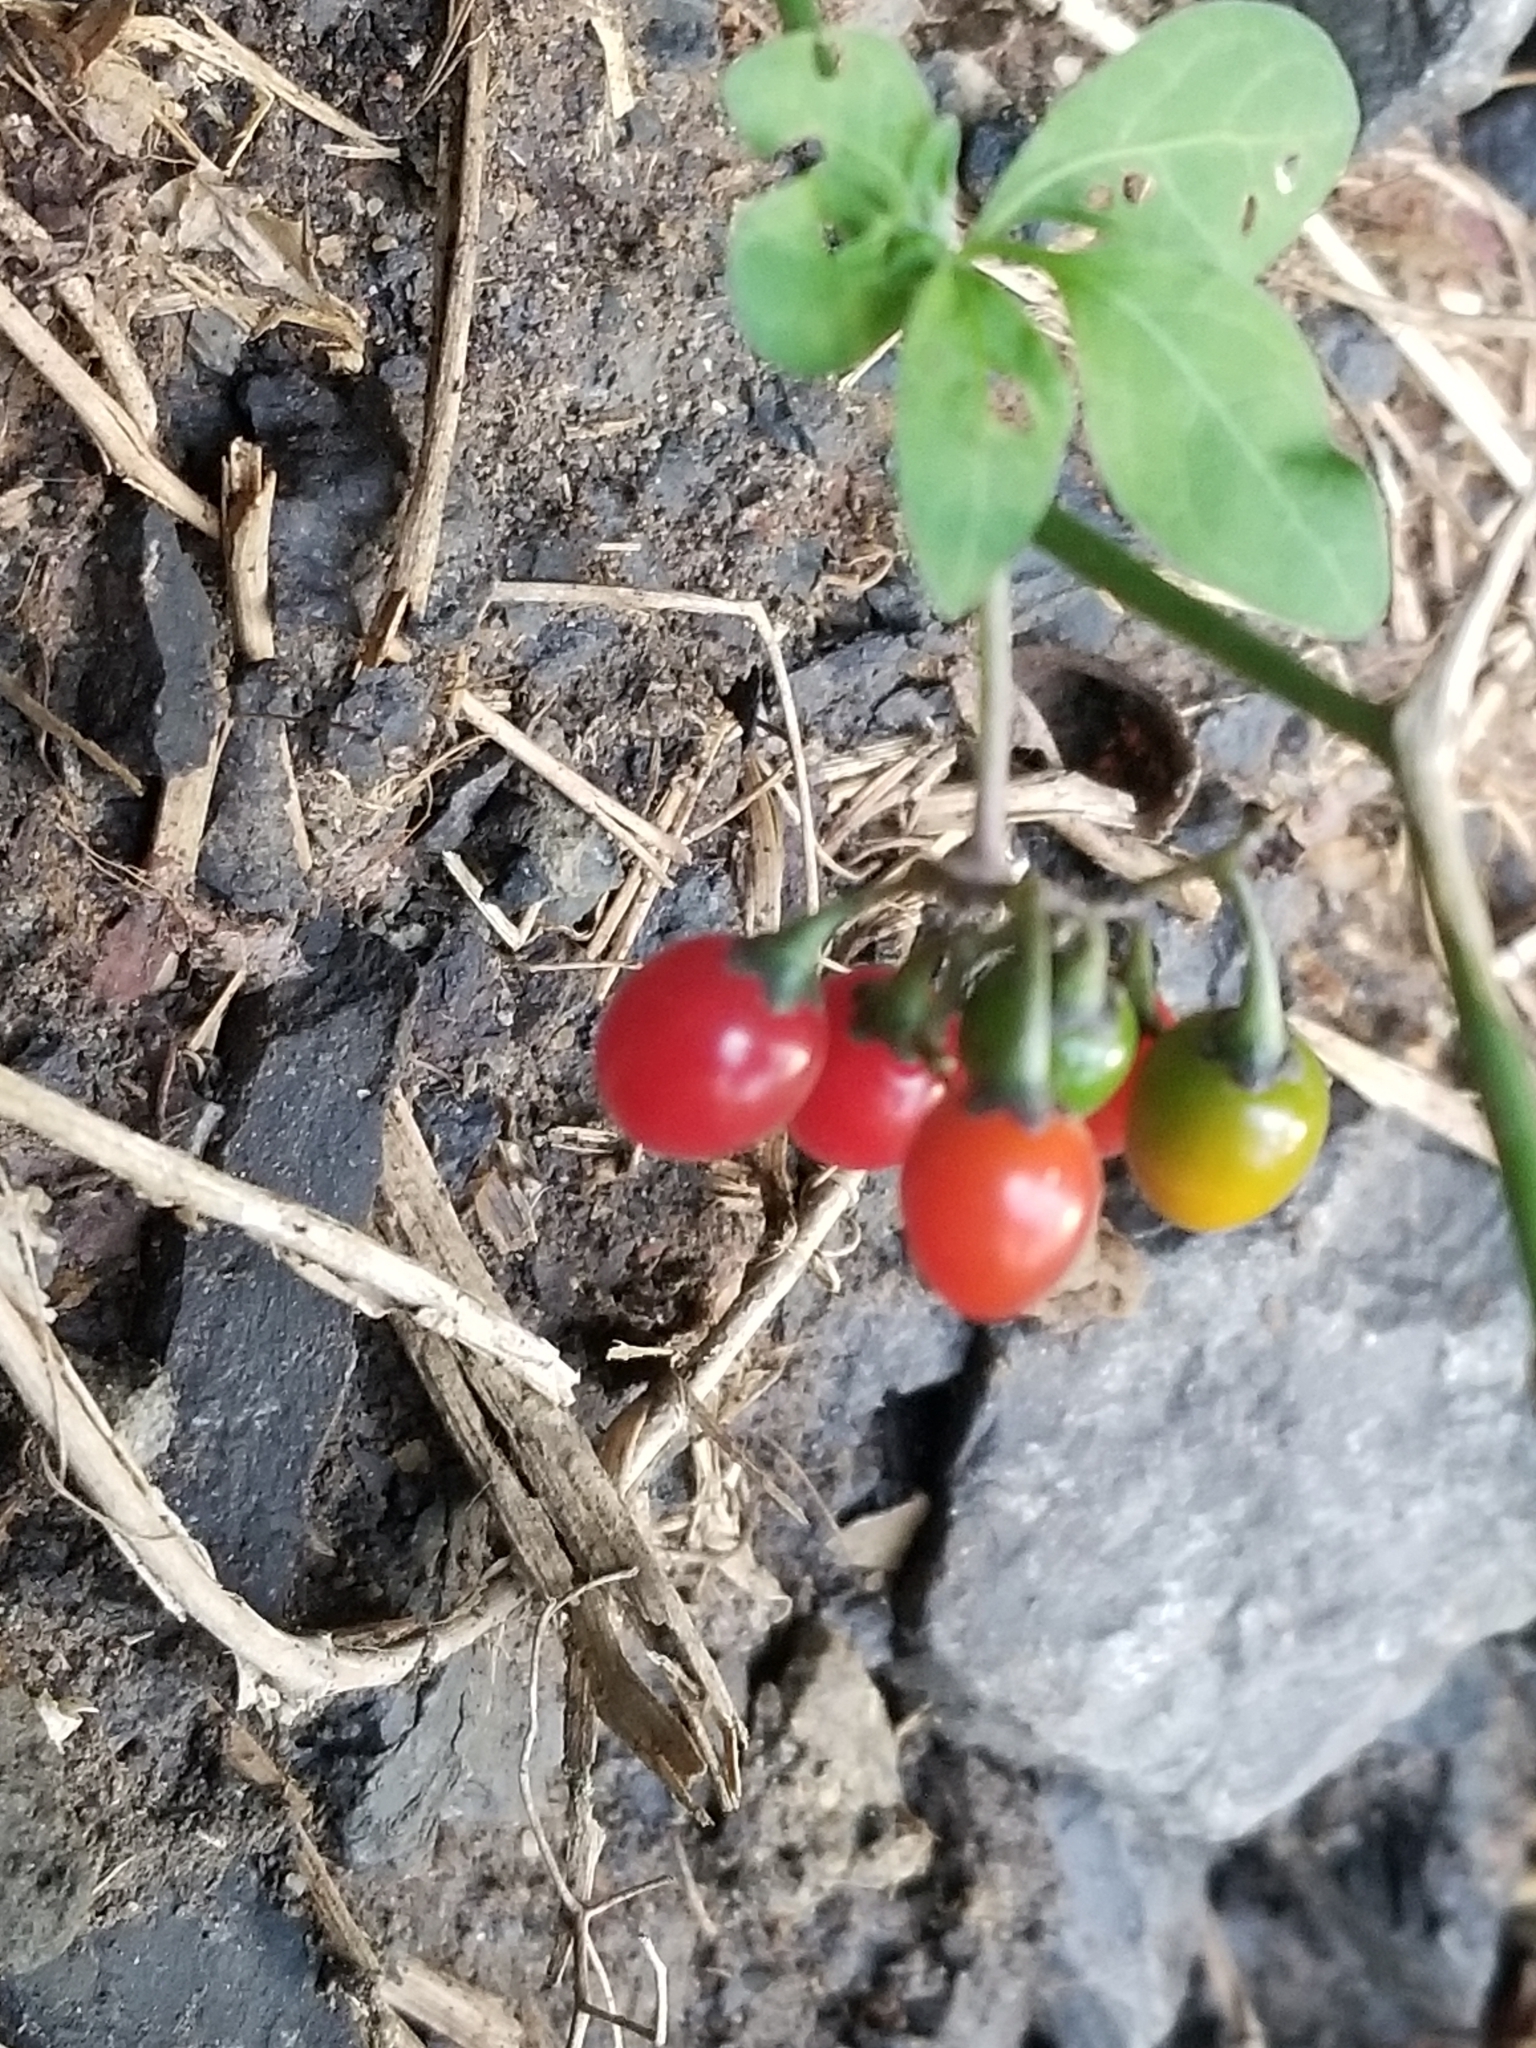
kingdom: Plantae
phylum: Tracheophyta
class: Magnoliopsida
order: Solanales
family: Solanaceae
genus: Solanum
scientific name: Solanum dulcamara
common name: Climbing nightshade
